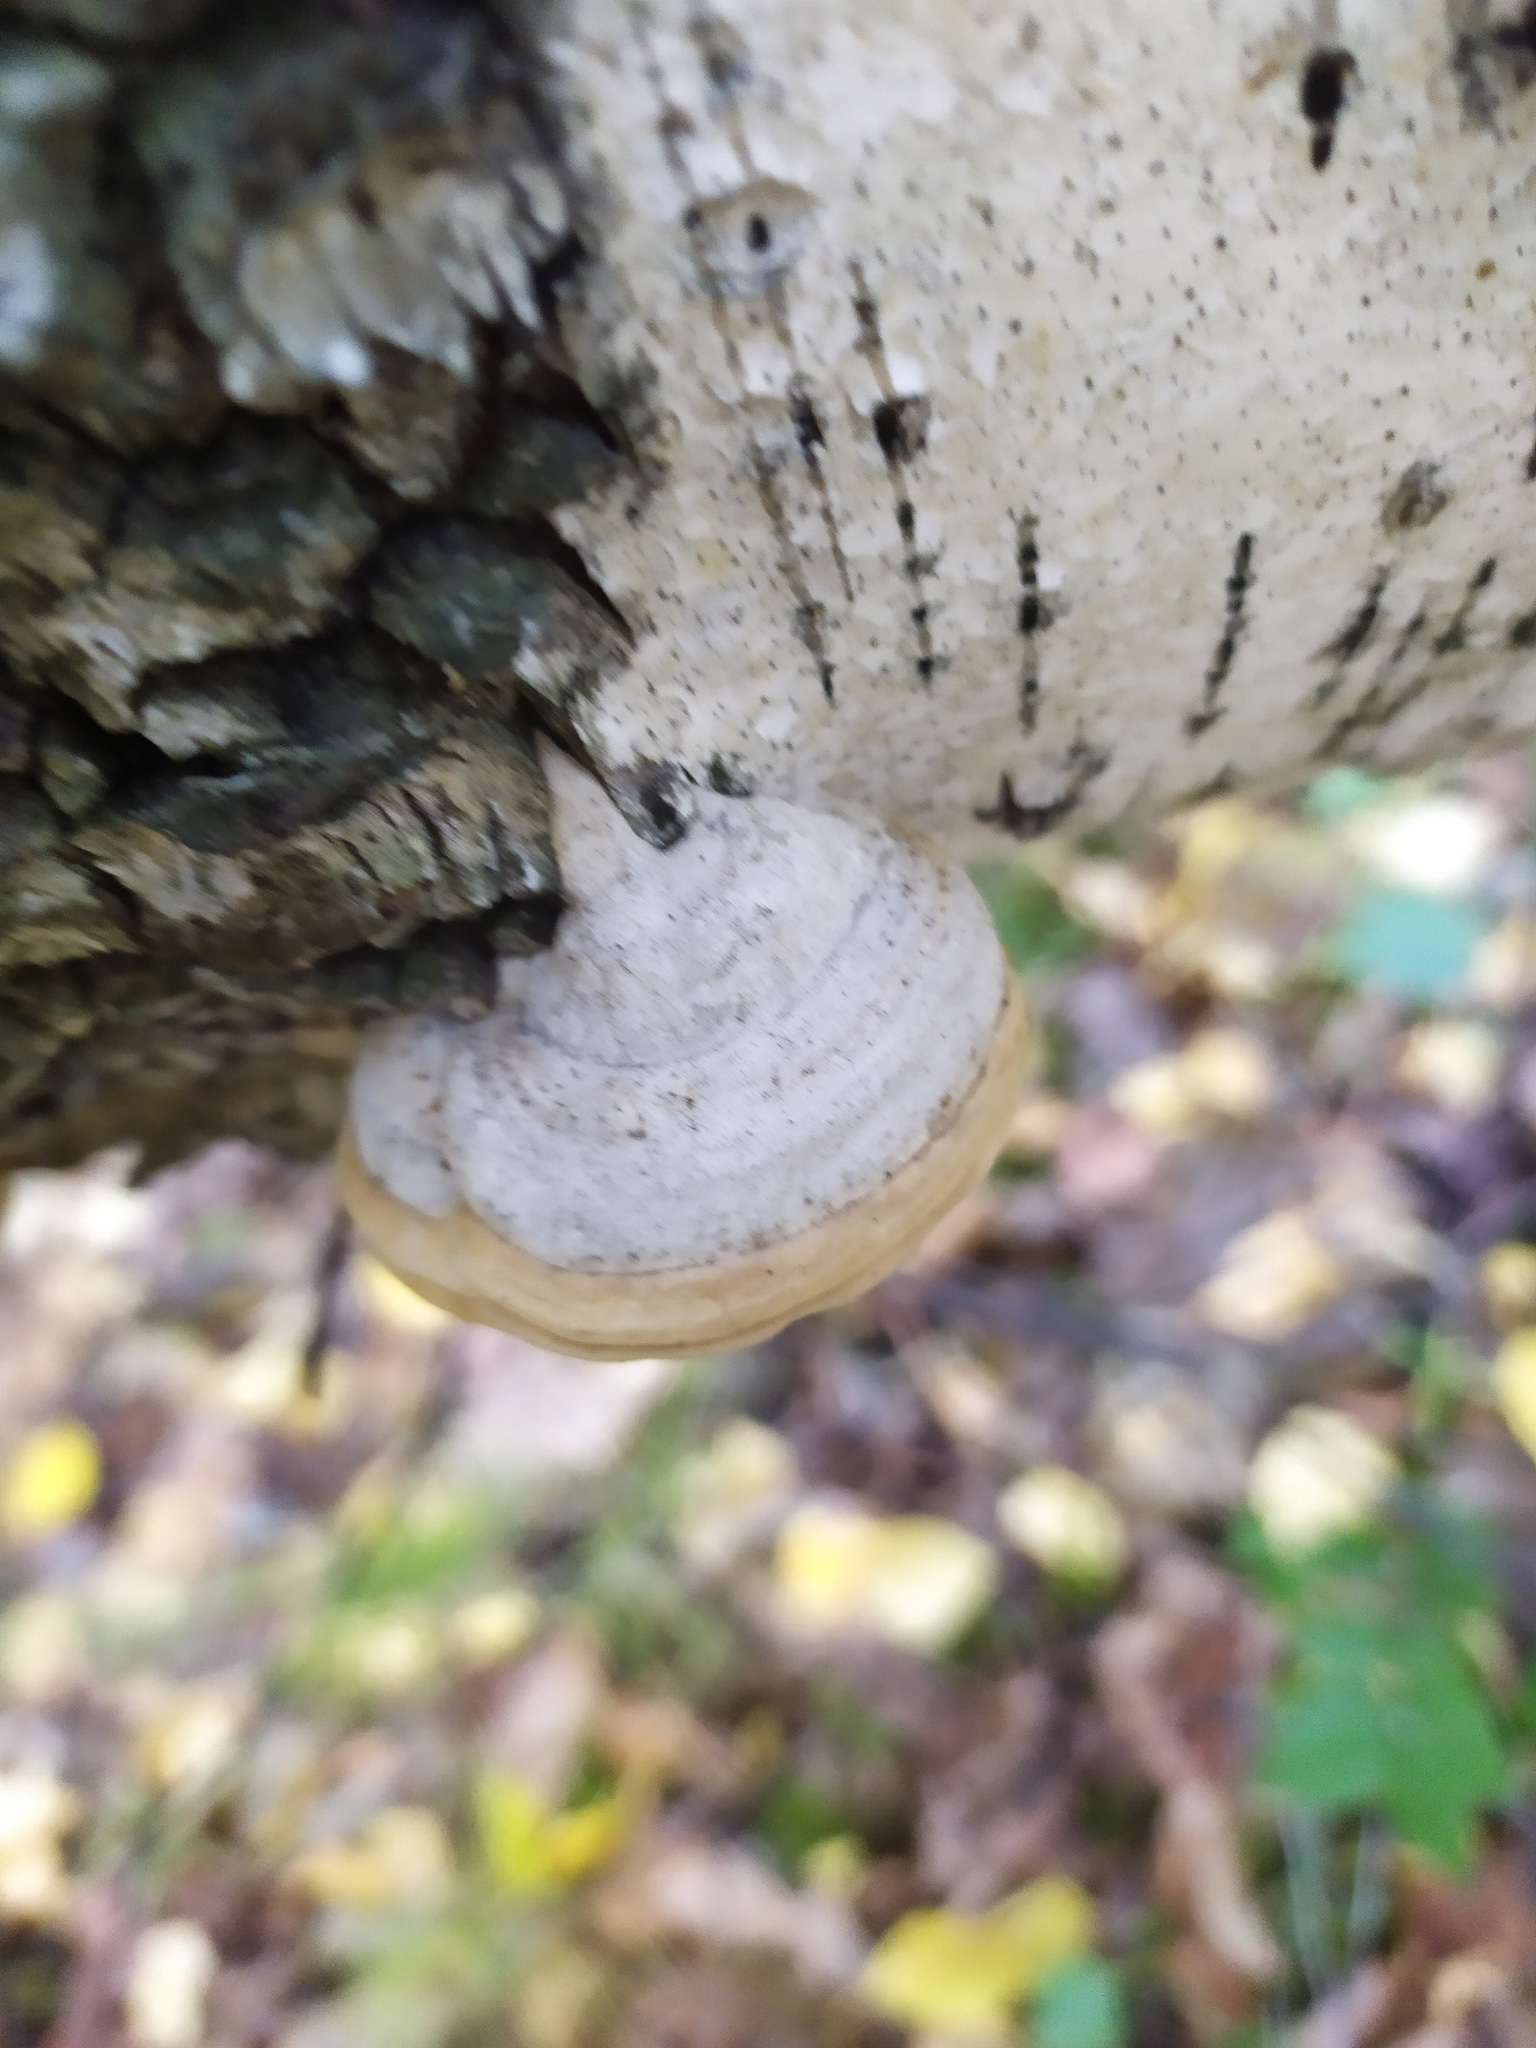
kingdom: Fungi
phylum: Basidiomycota
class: Agaricomycetes
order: Polyporales
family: Polyporaceae
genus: Fomes
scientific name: Fomes fomentarius
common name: Hoof fungus
